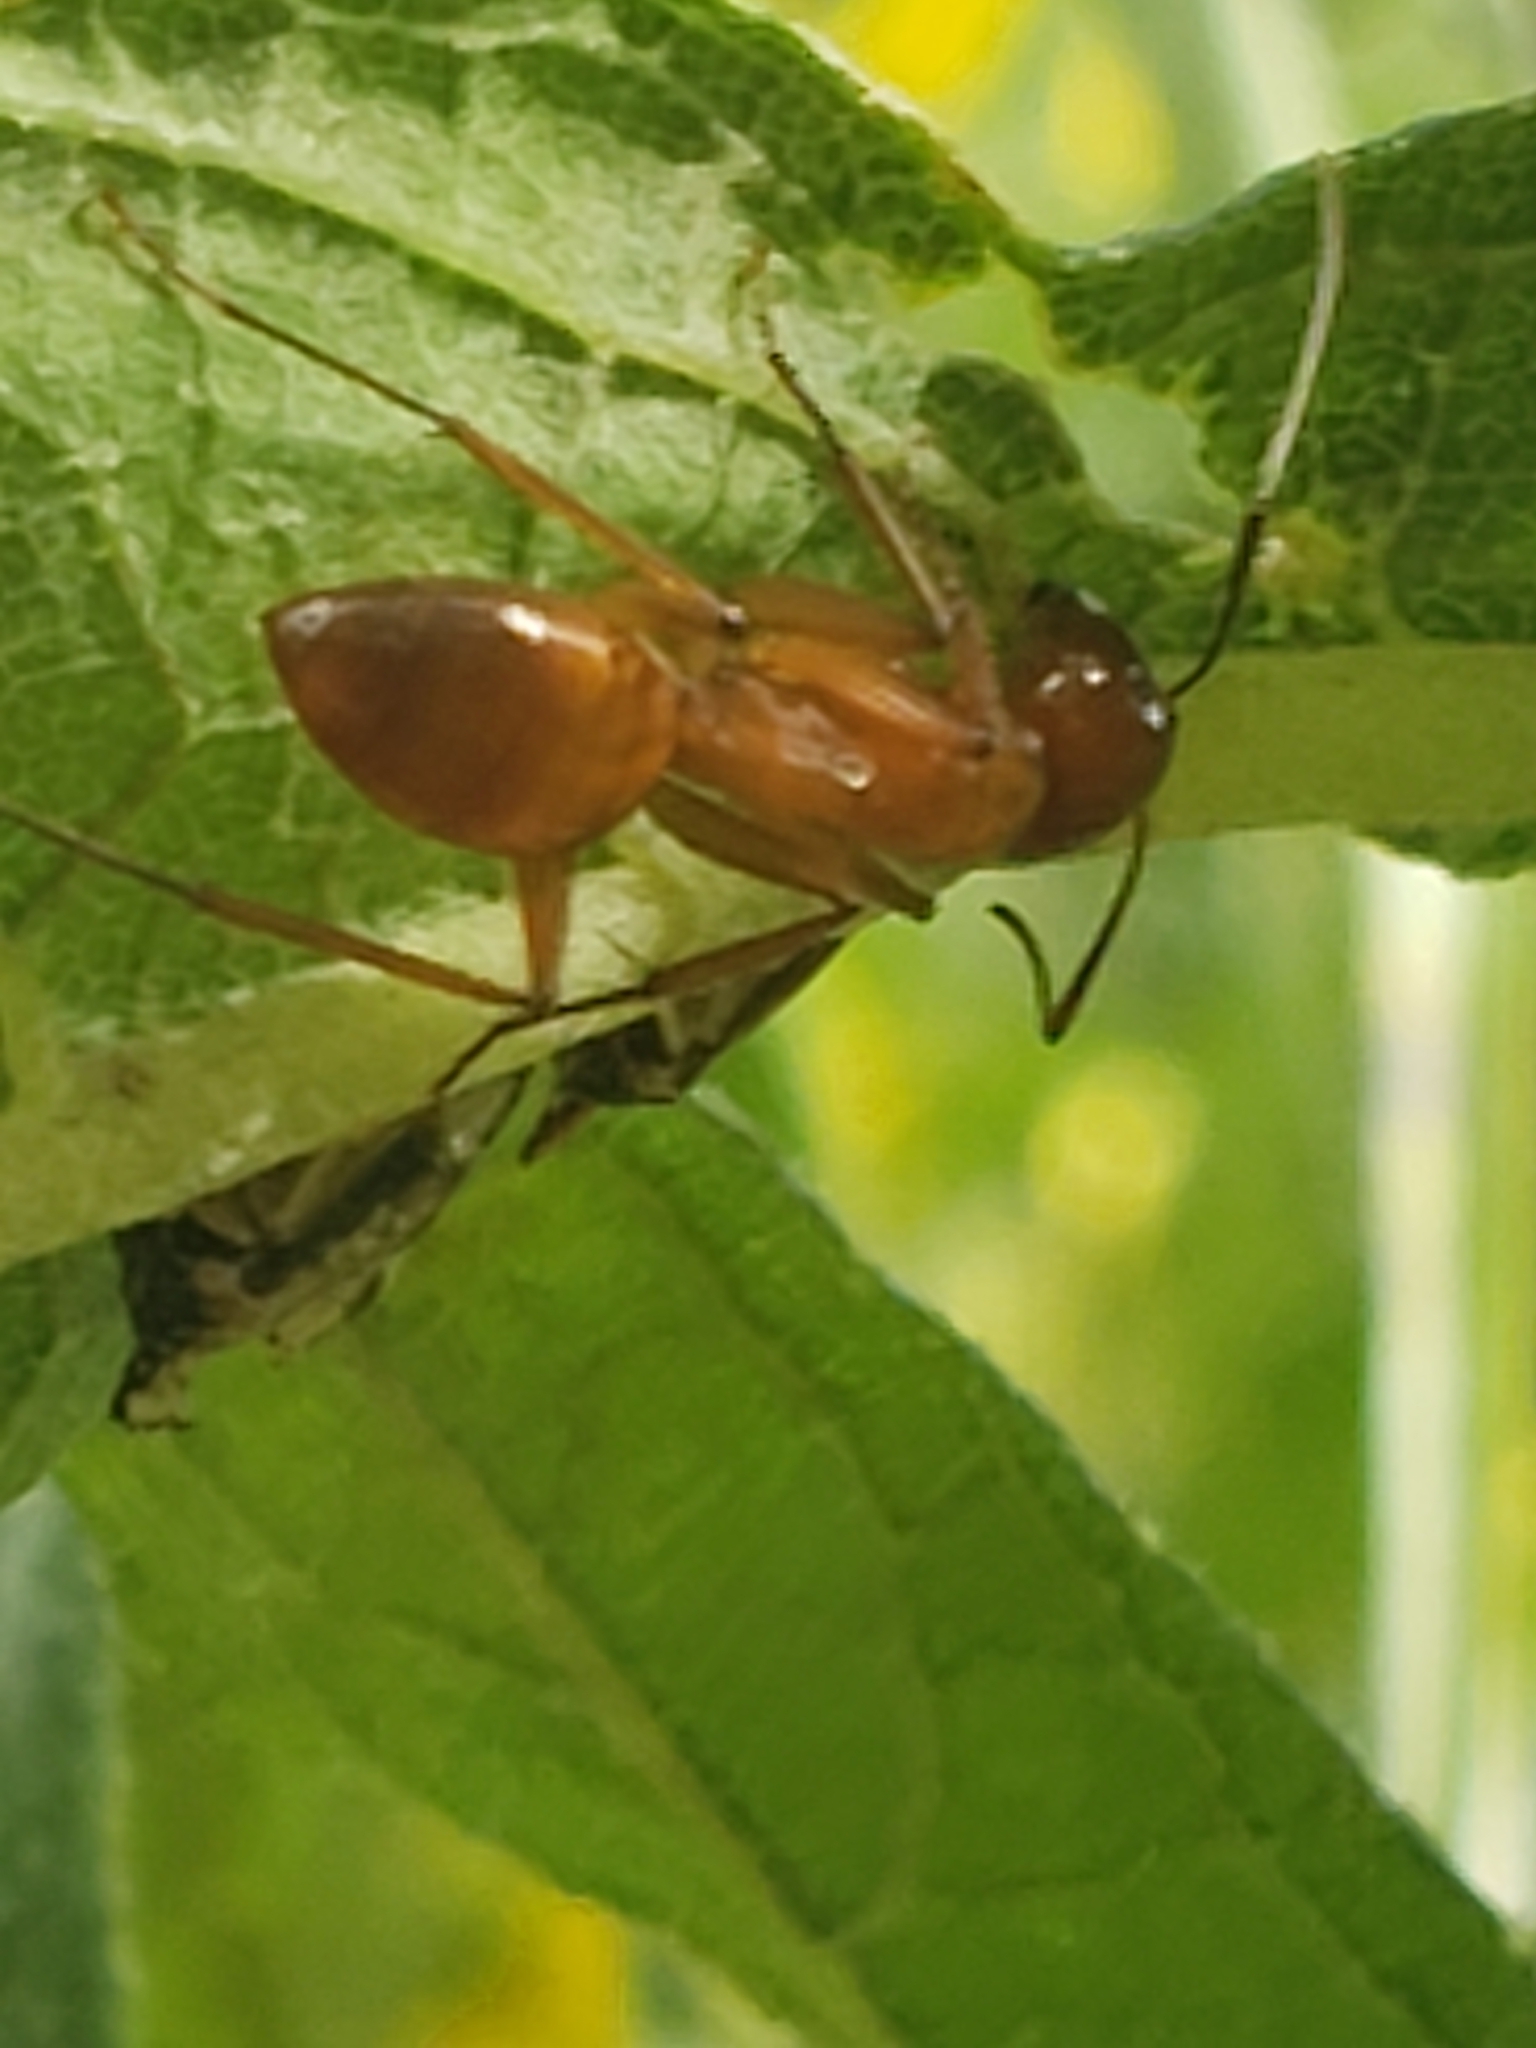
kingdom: Animalia
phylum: Arthropoda
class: Insecta
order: Hymenoptera
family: Formicidae
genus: Camponotus
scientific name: Camponotus castaneus
